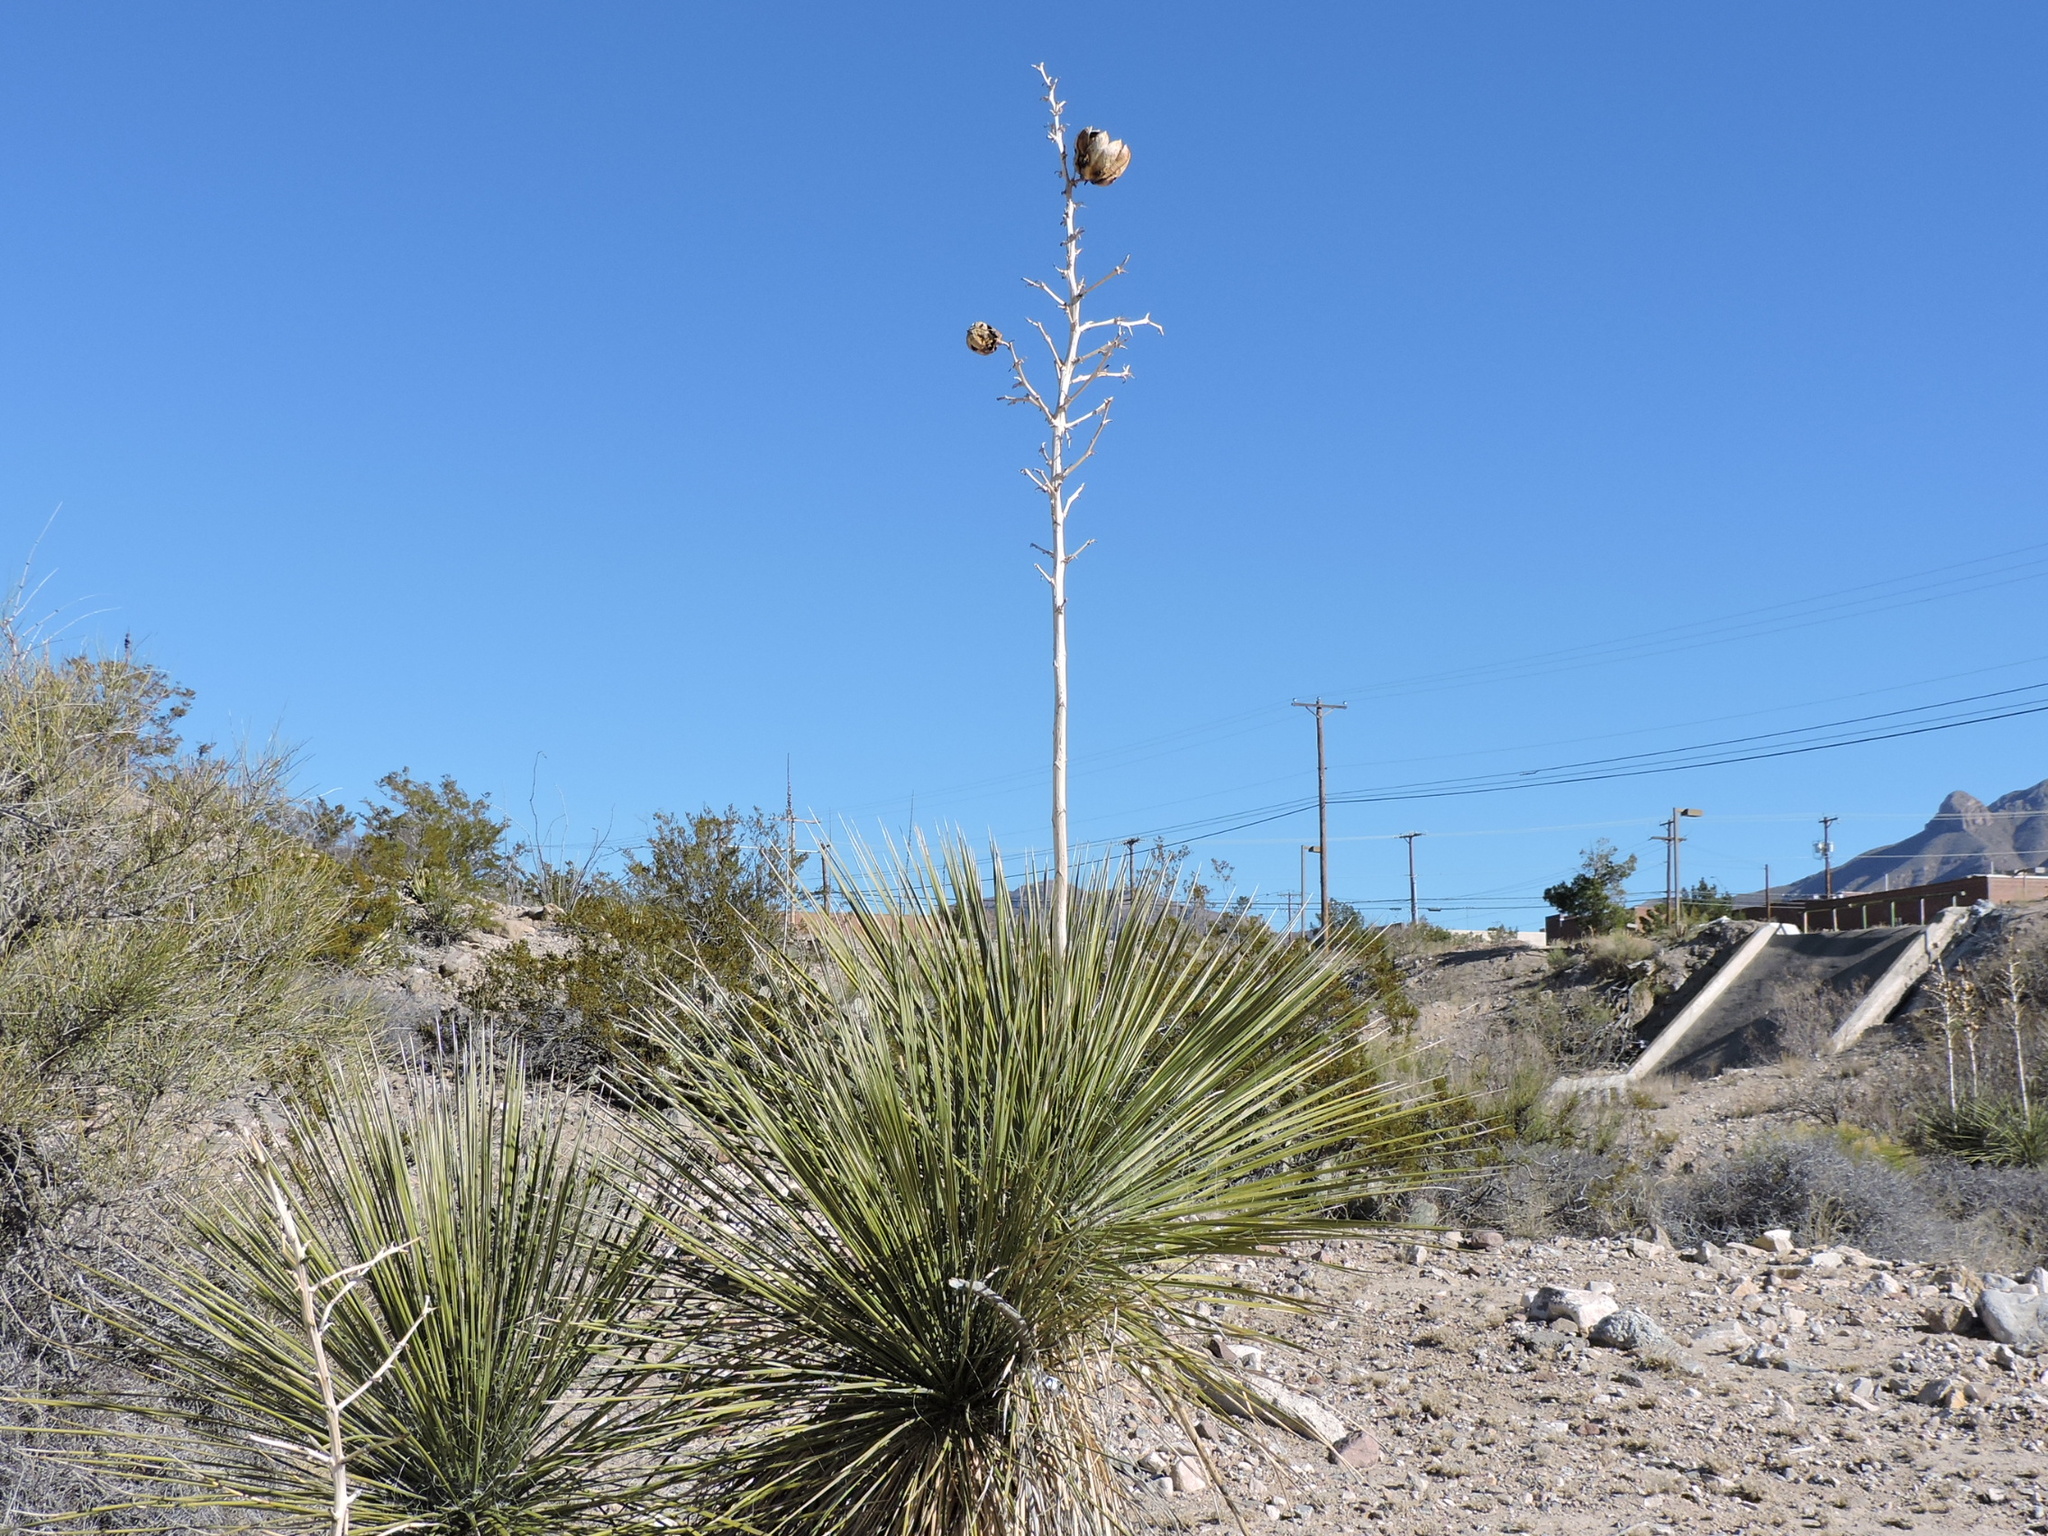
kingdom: Plantae
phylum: Tracheophyta
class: Liliopsida
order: Asparagales
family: Asparagaceae
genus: Yucca
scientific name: Yucca elata
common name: Palmella
